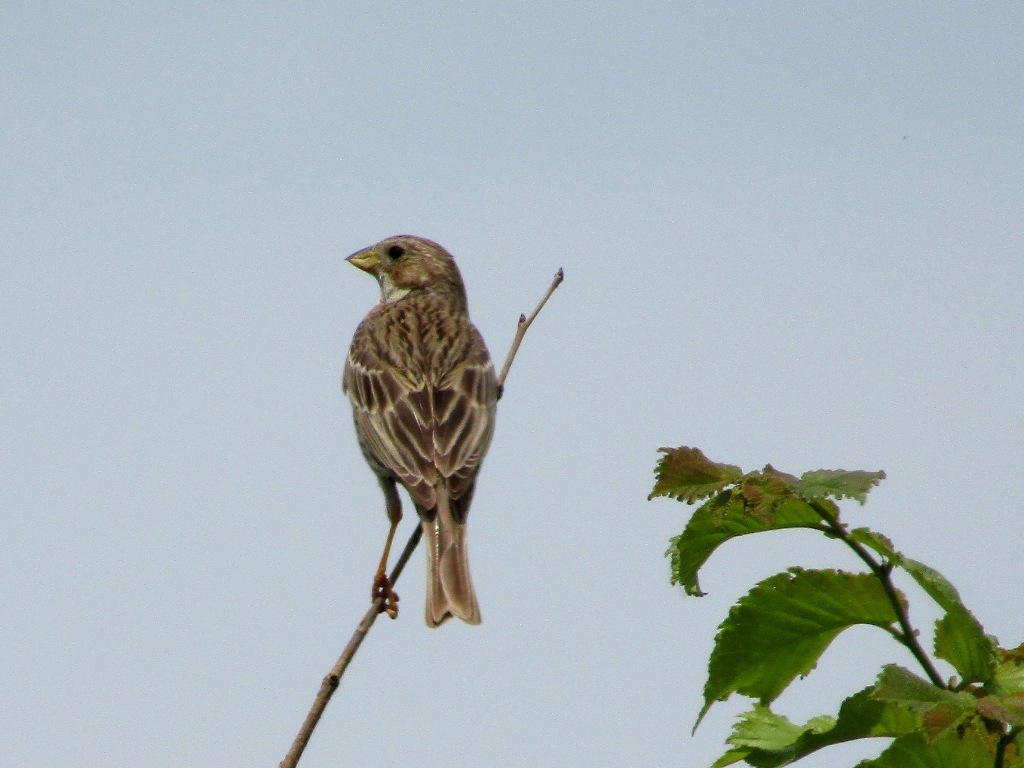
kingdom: Animalia
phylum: Chordata
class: Aves
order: Passeriformes
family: Emberizidae
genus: Emberiza
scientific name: Emberiza calandra
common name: Corn bunting
